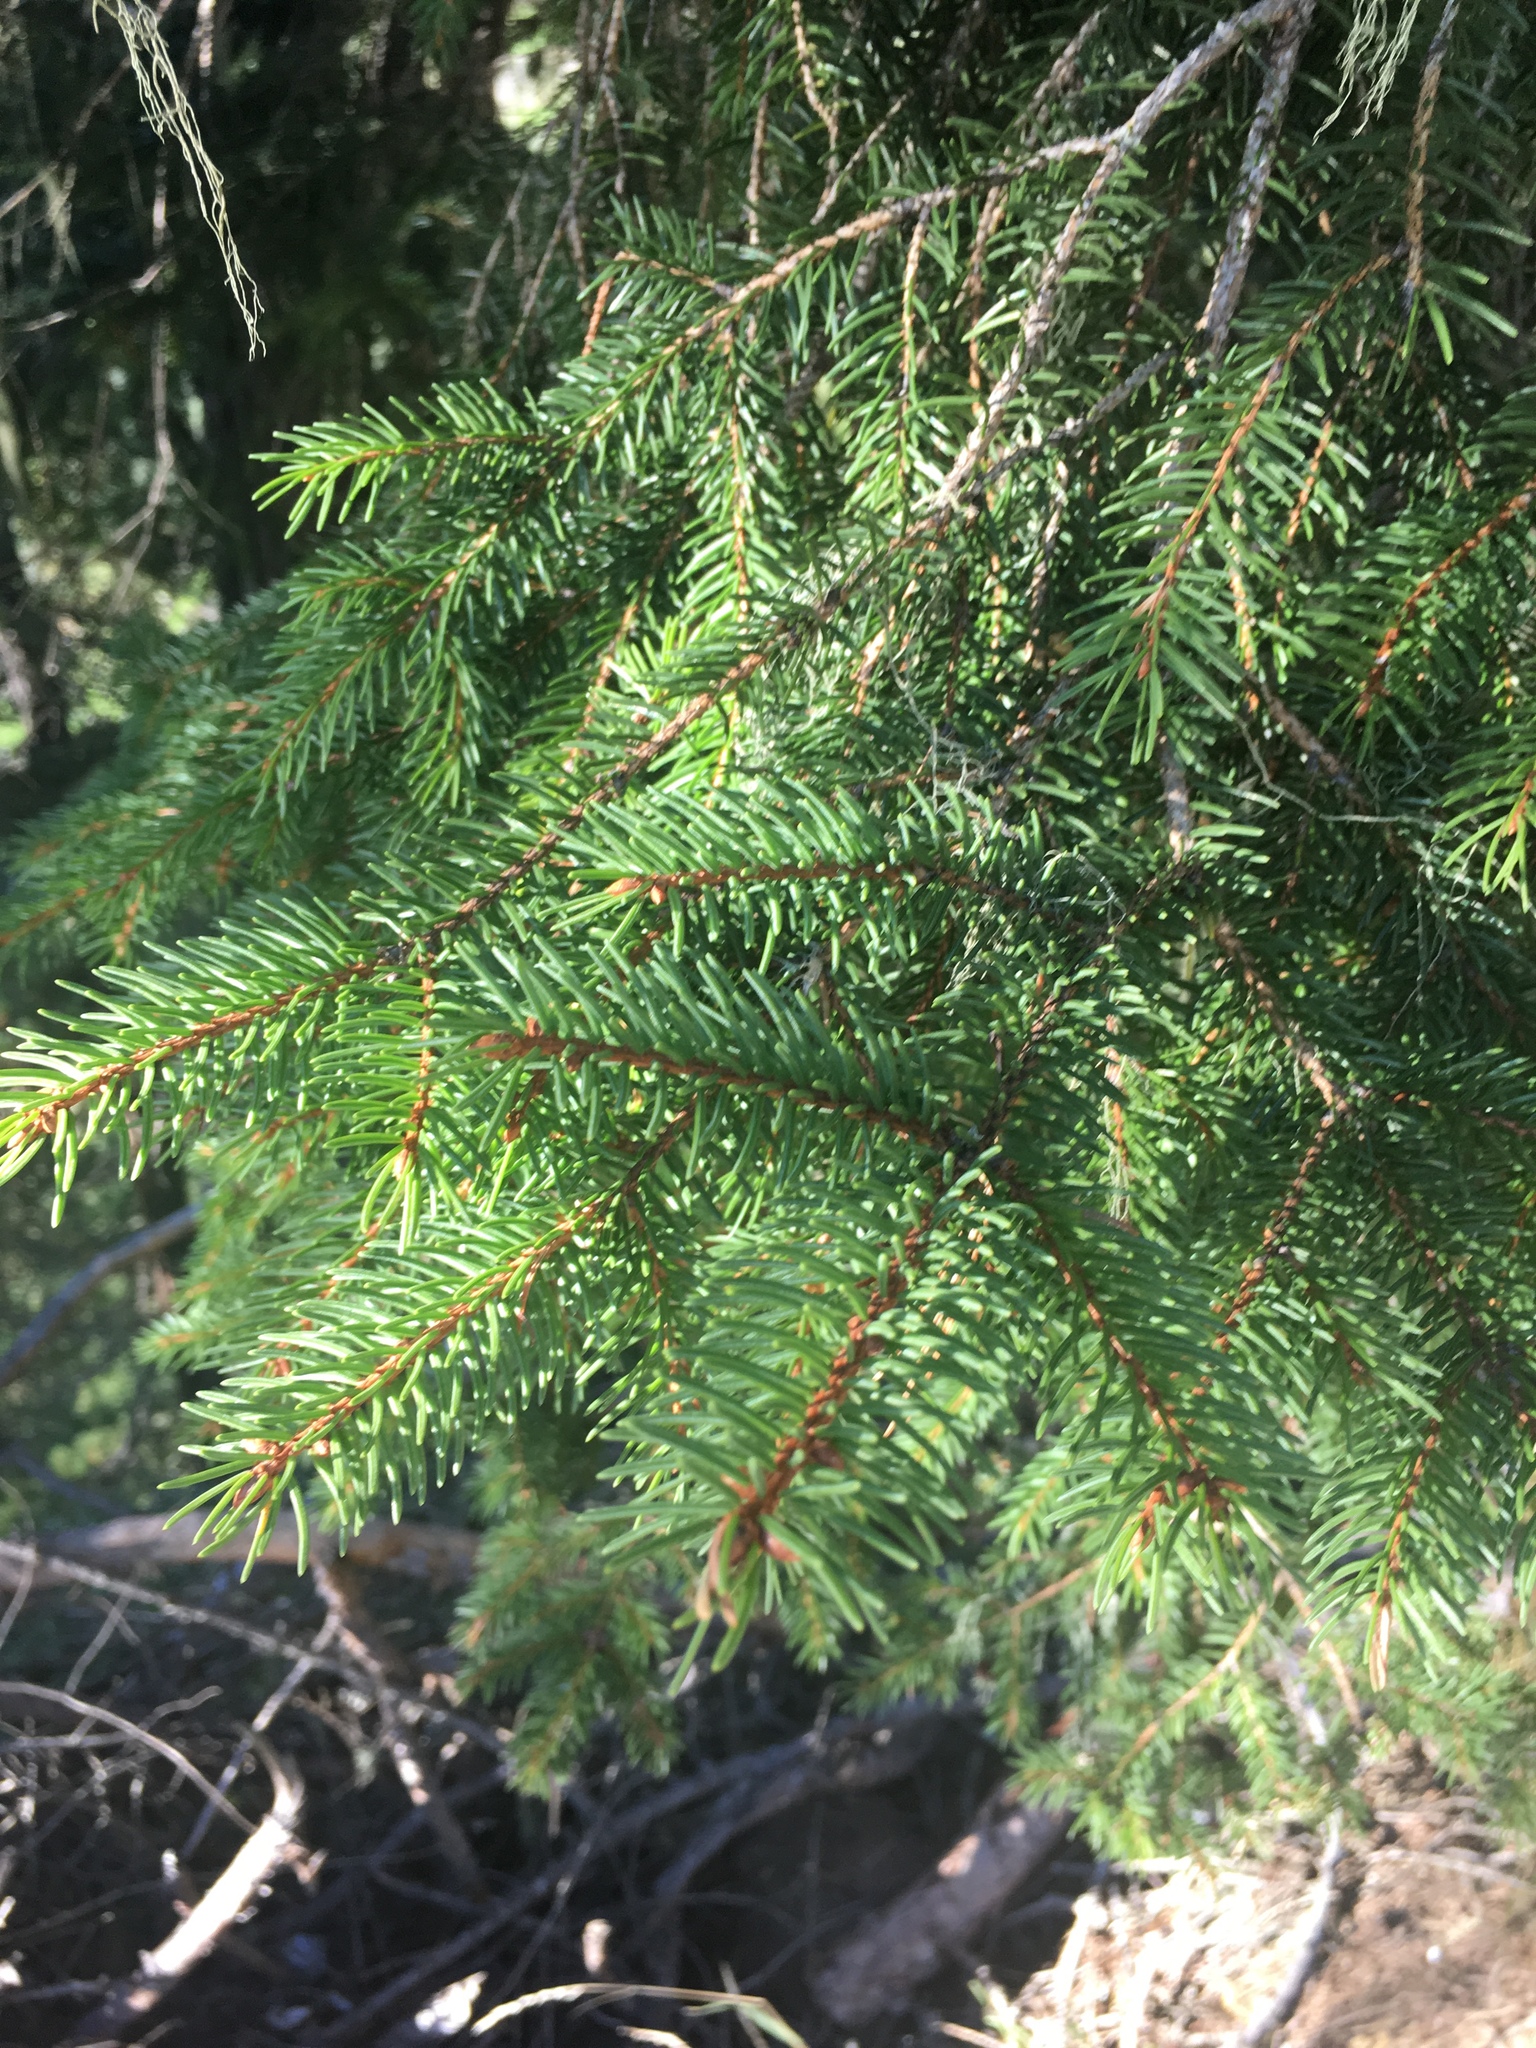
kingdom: Plantae
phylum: Tracheophyta
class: Pinopsida
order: Pinales
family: Pinaceae
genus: Picea
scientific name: Picea abies
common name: Norway spruce
